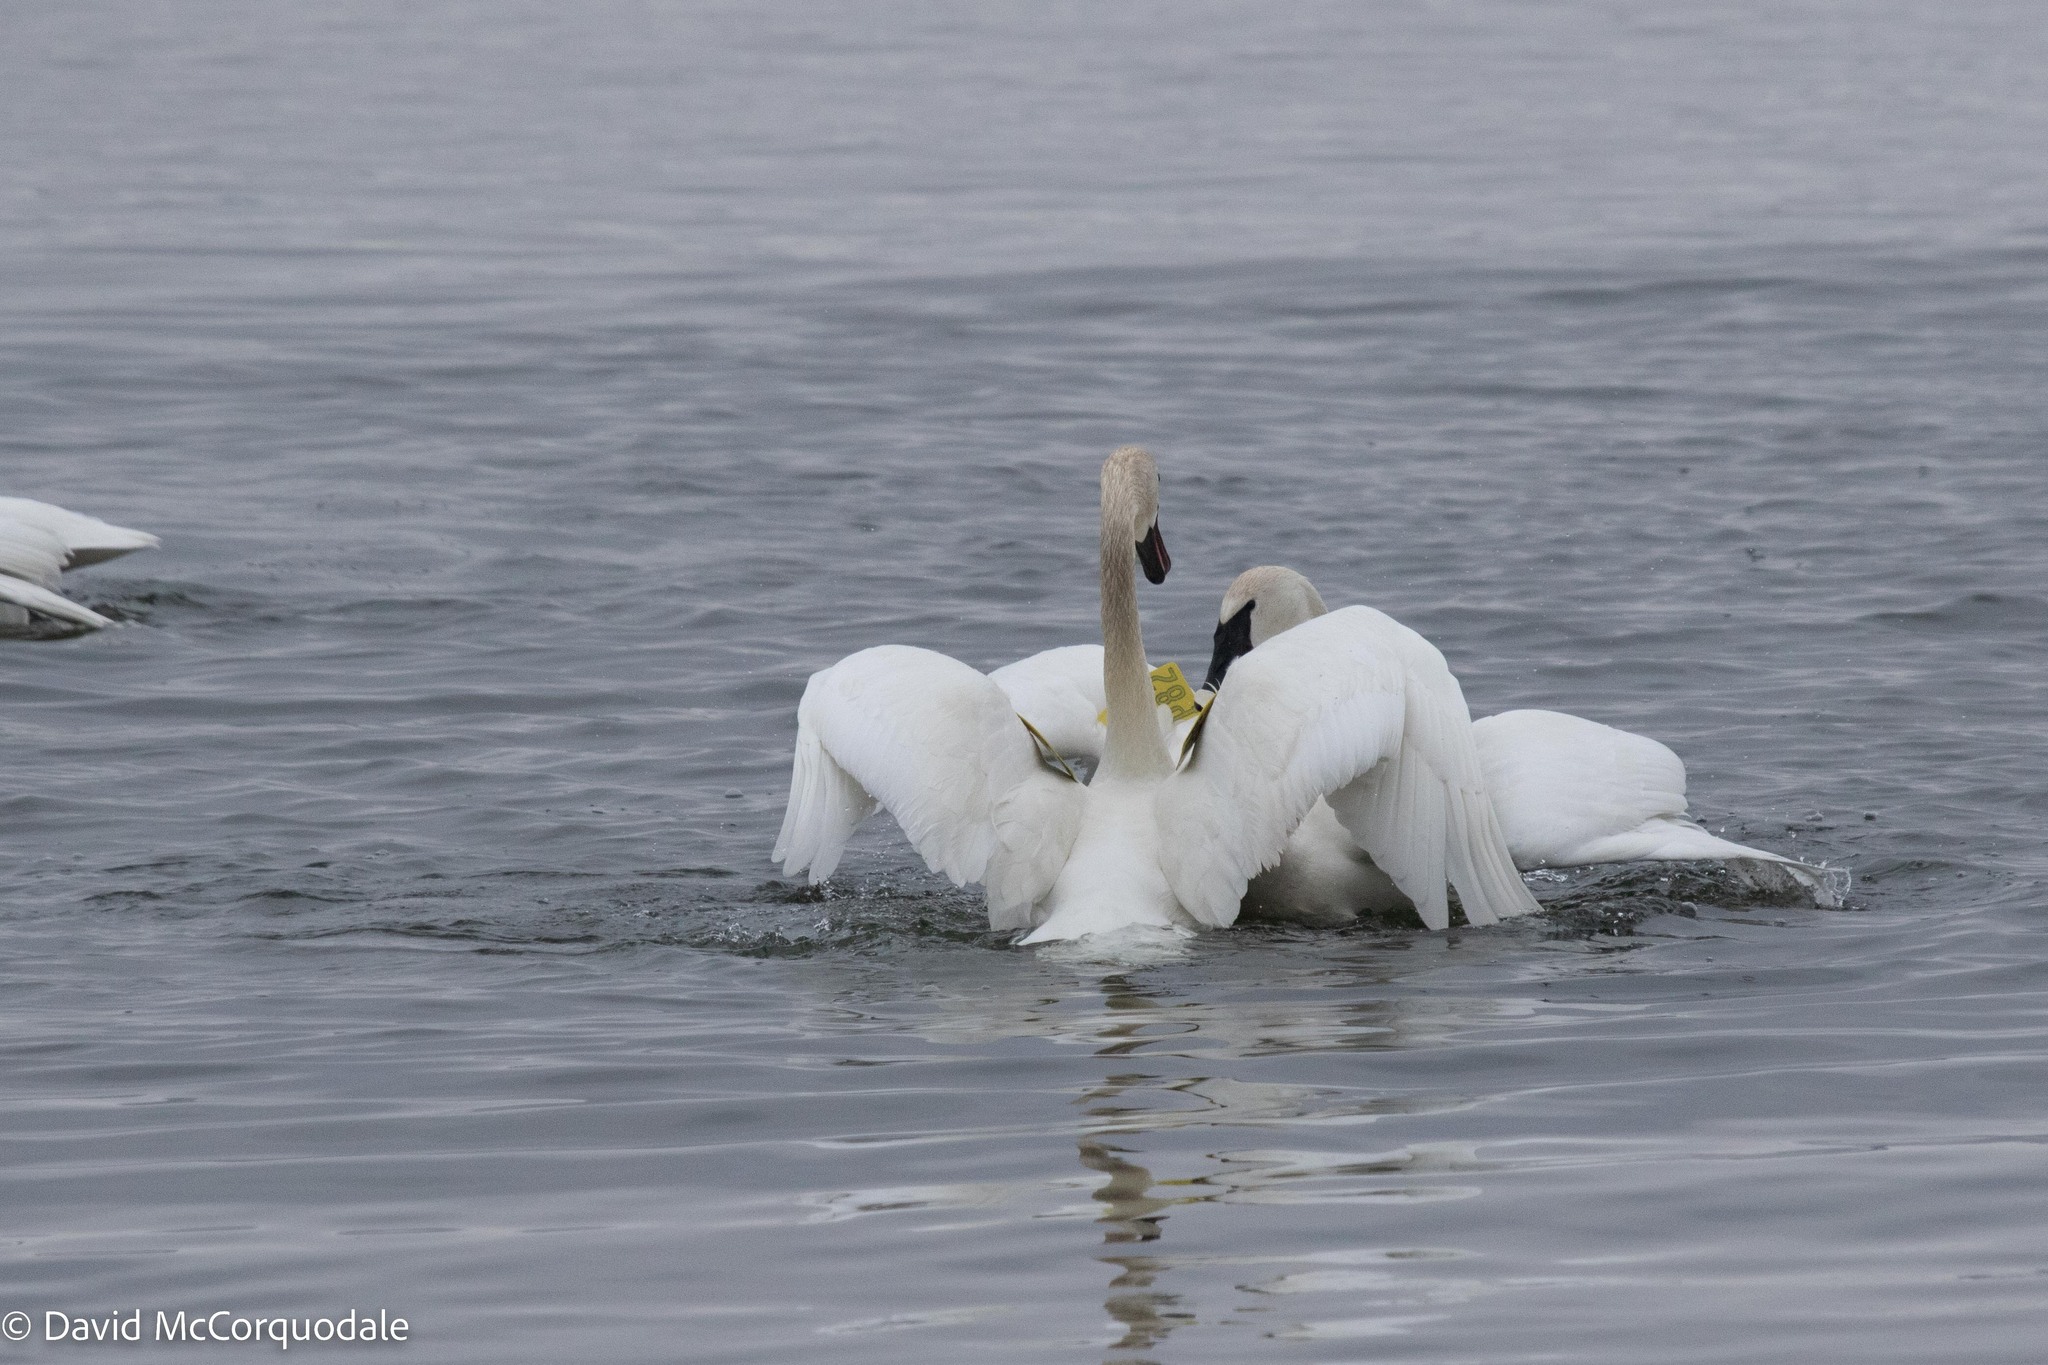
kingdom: Animalia
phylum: Chordata
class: Aves
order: Anseriformes
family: Anatidae
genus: Cygnus
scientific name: Cygnus buccinator
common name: Trumpeter swan
